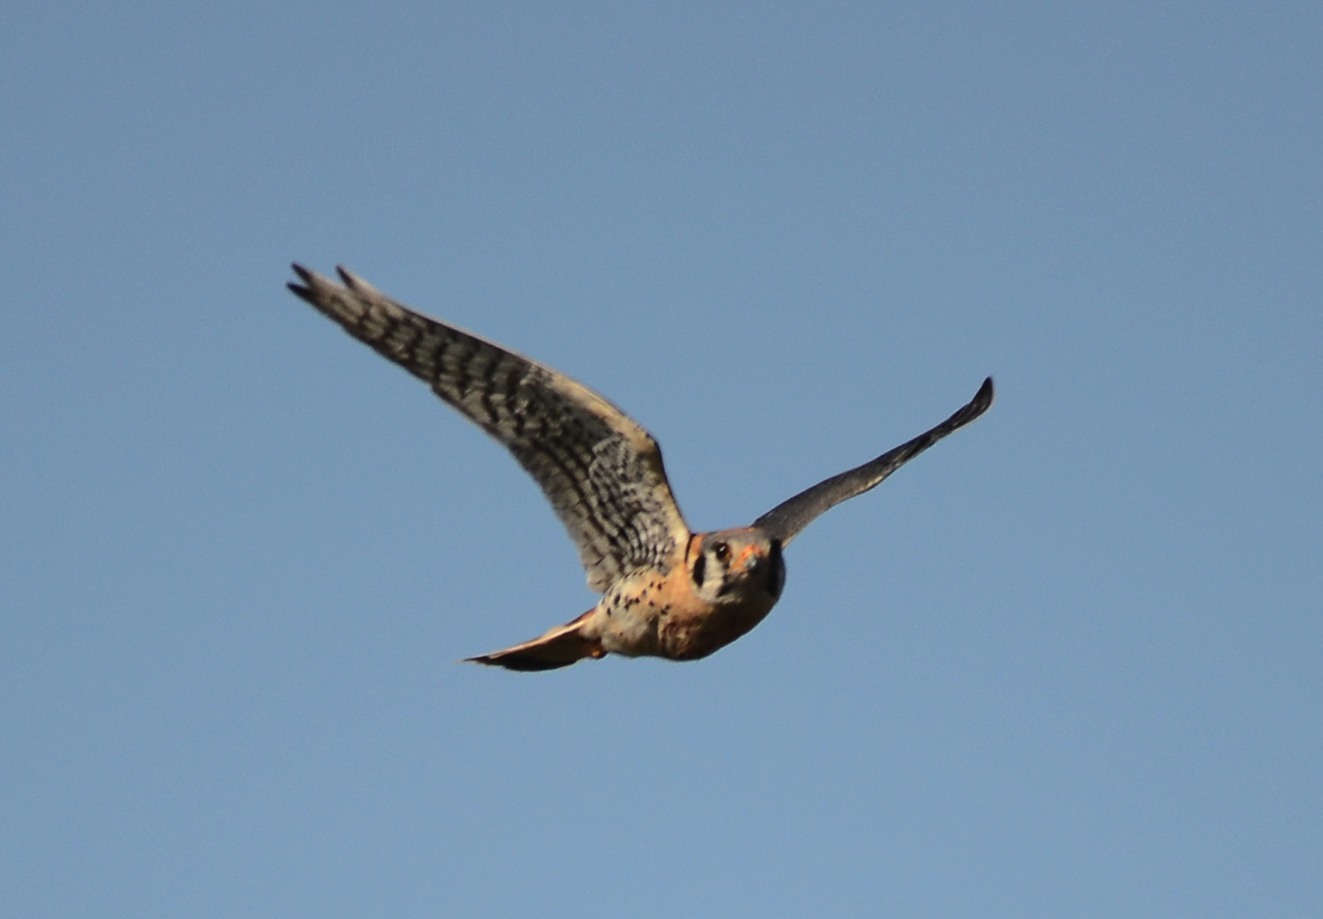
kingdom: Animalia
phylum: Chordata
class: Aves
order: Falconiformes
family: Falconidae
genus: Falco
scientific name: Falco sparverius
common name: American kestrel
